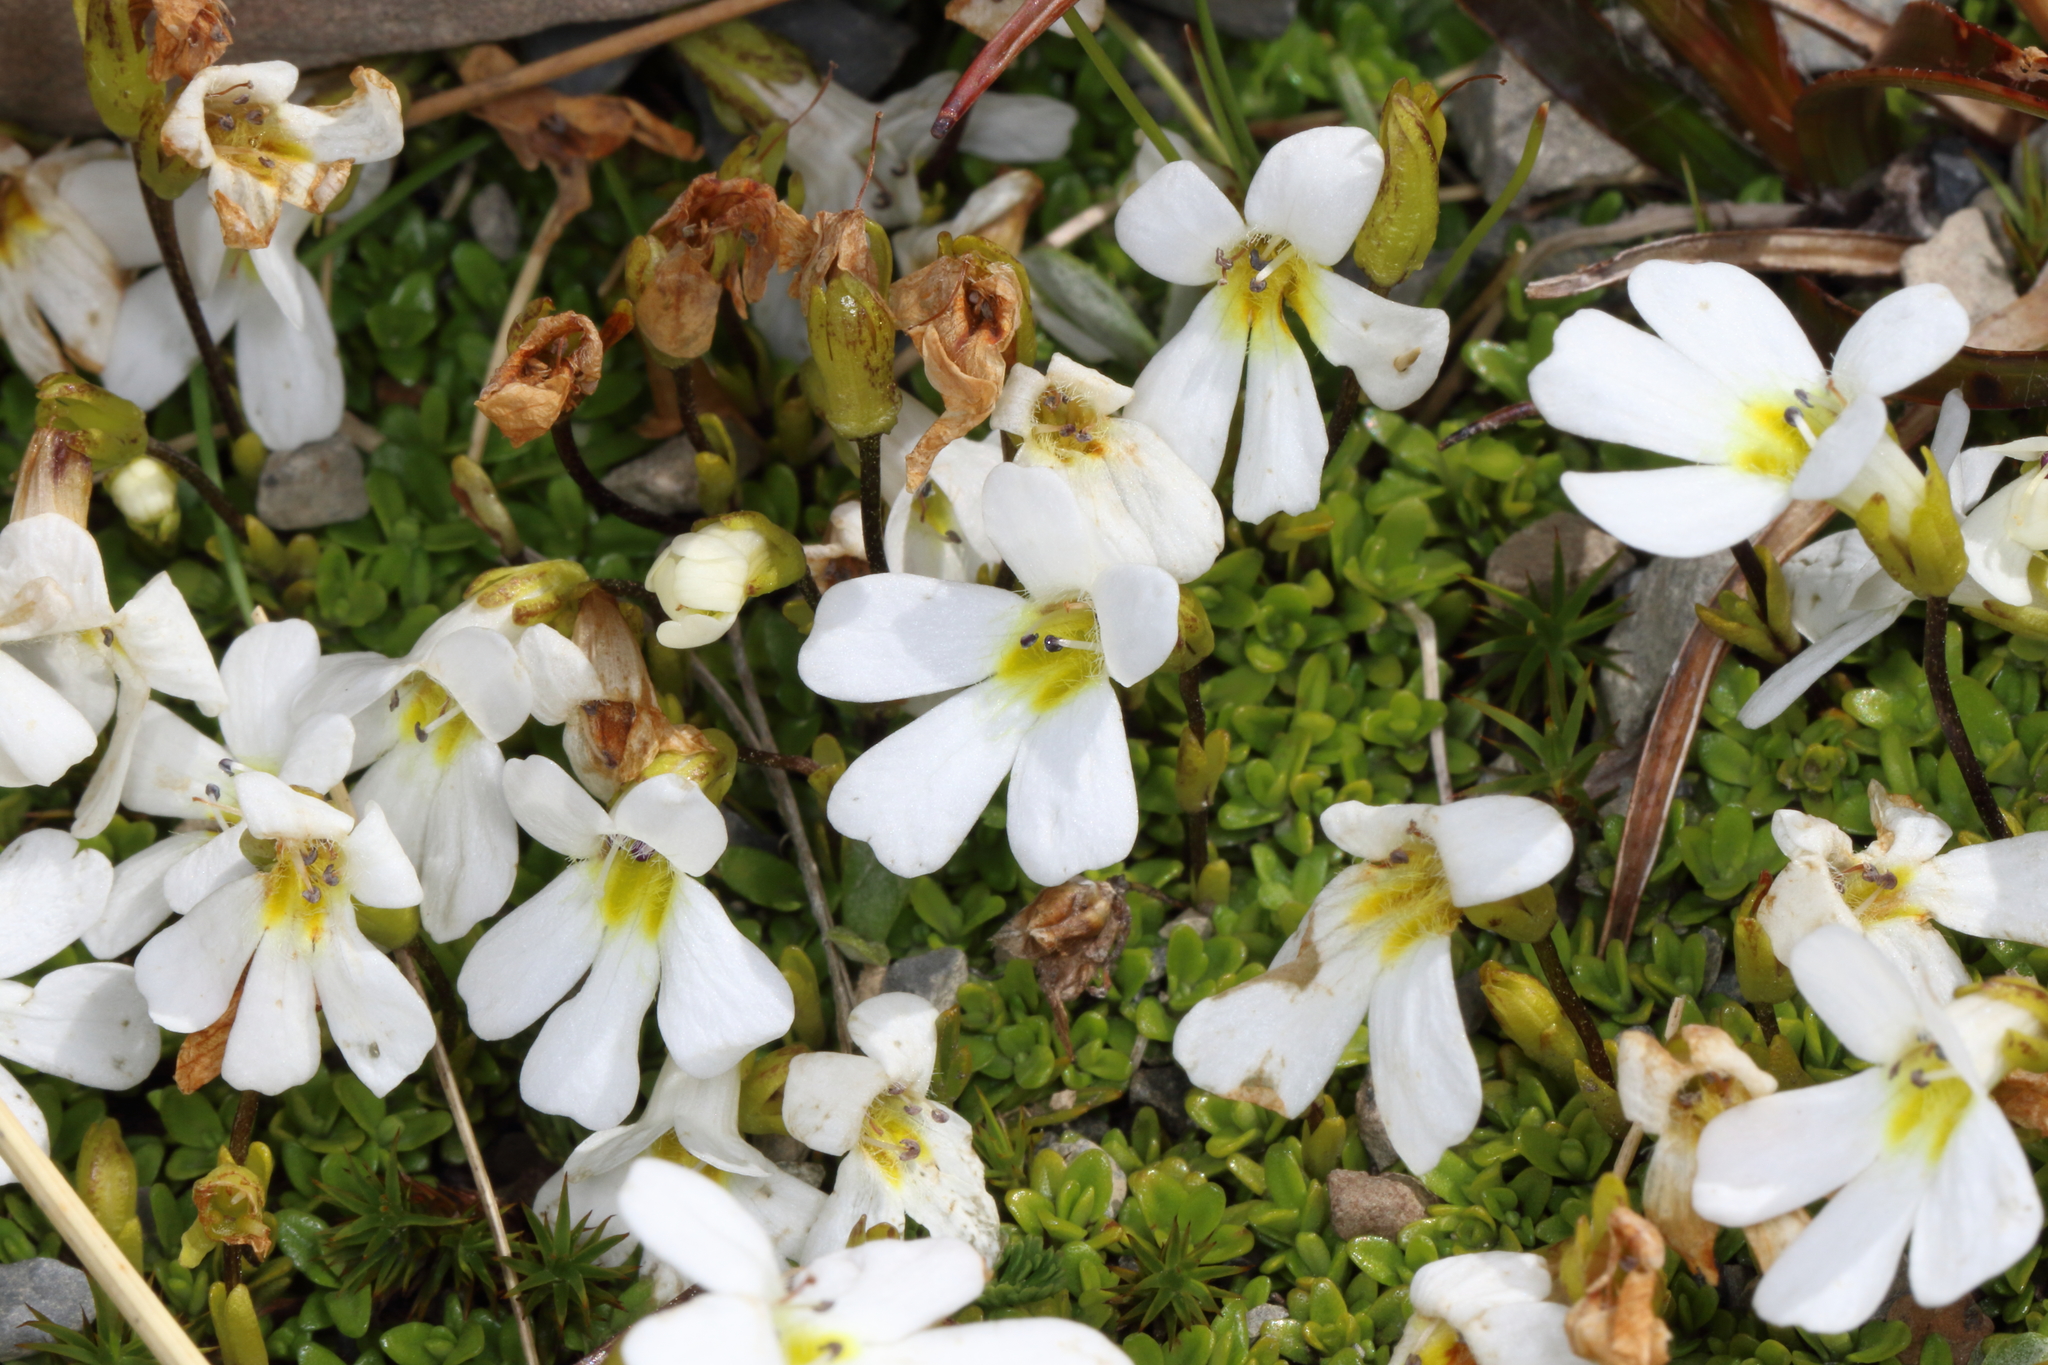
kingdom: Plantae
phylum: Tracheophyta
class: Magnoliopsida
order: Lamiales
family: Plantaginaceae
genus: Ourisia
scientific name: Ourisia caespitosa
